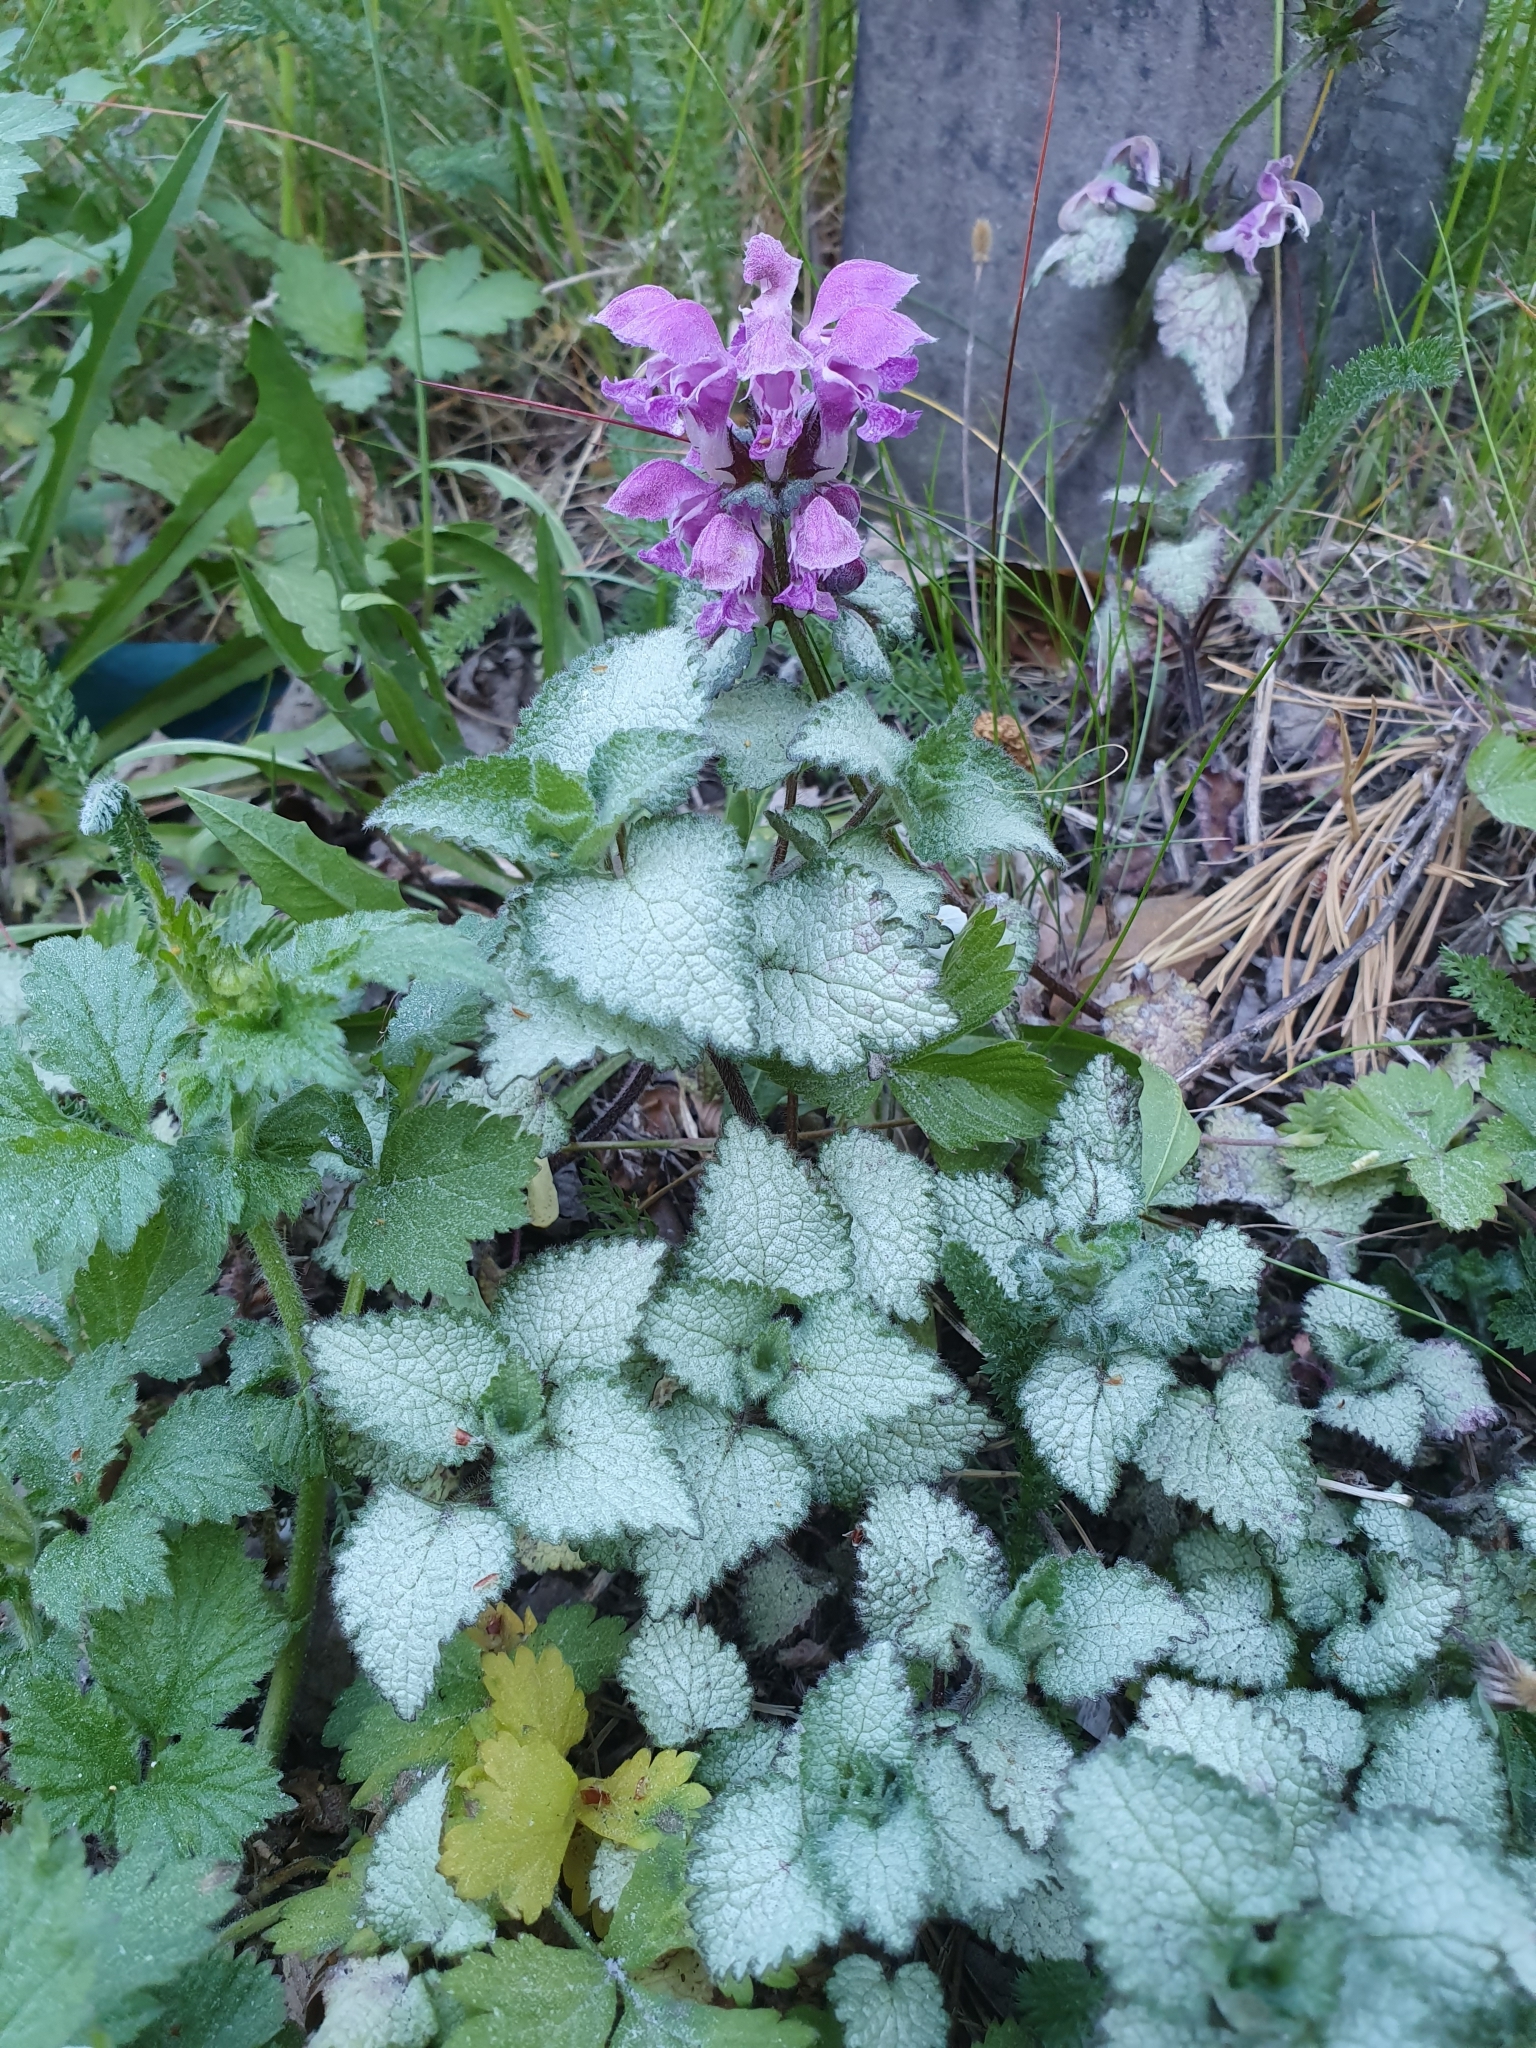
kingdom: Plantae
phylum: Tracheophyta
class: Magnoliopsida
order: Lamiales
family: Lamiaceae
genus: Lamium
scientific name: Lamium maculatum
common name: Spotted dead-nettle
